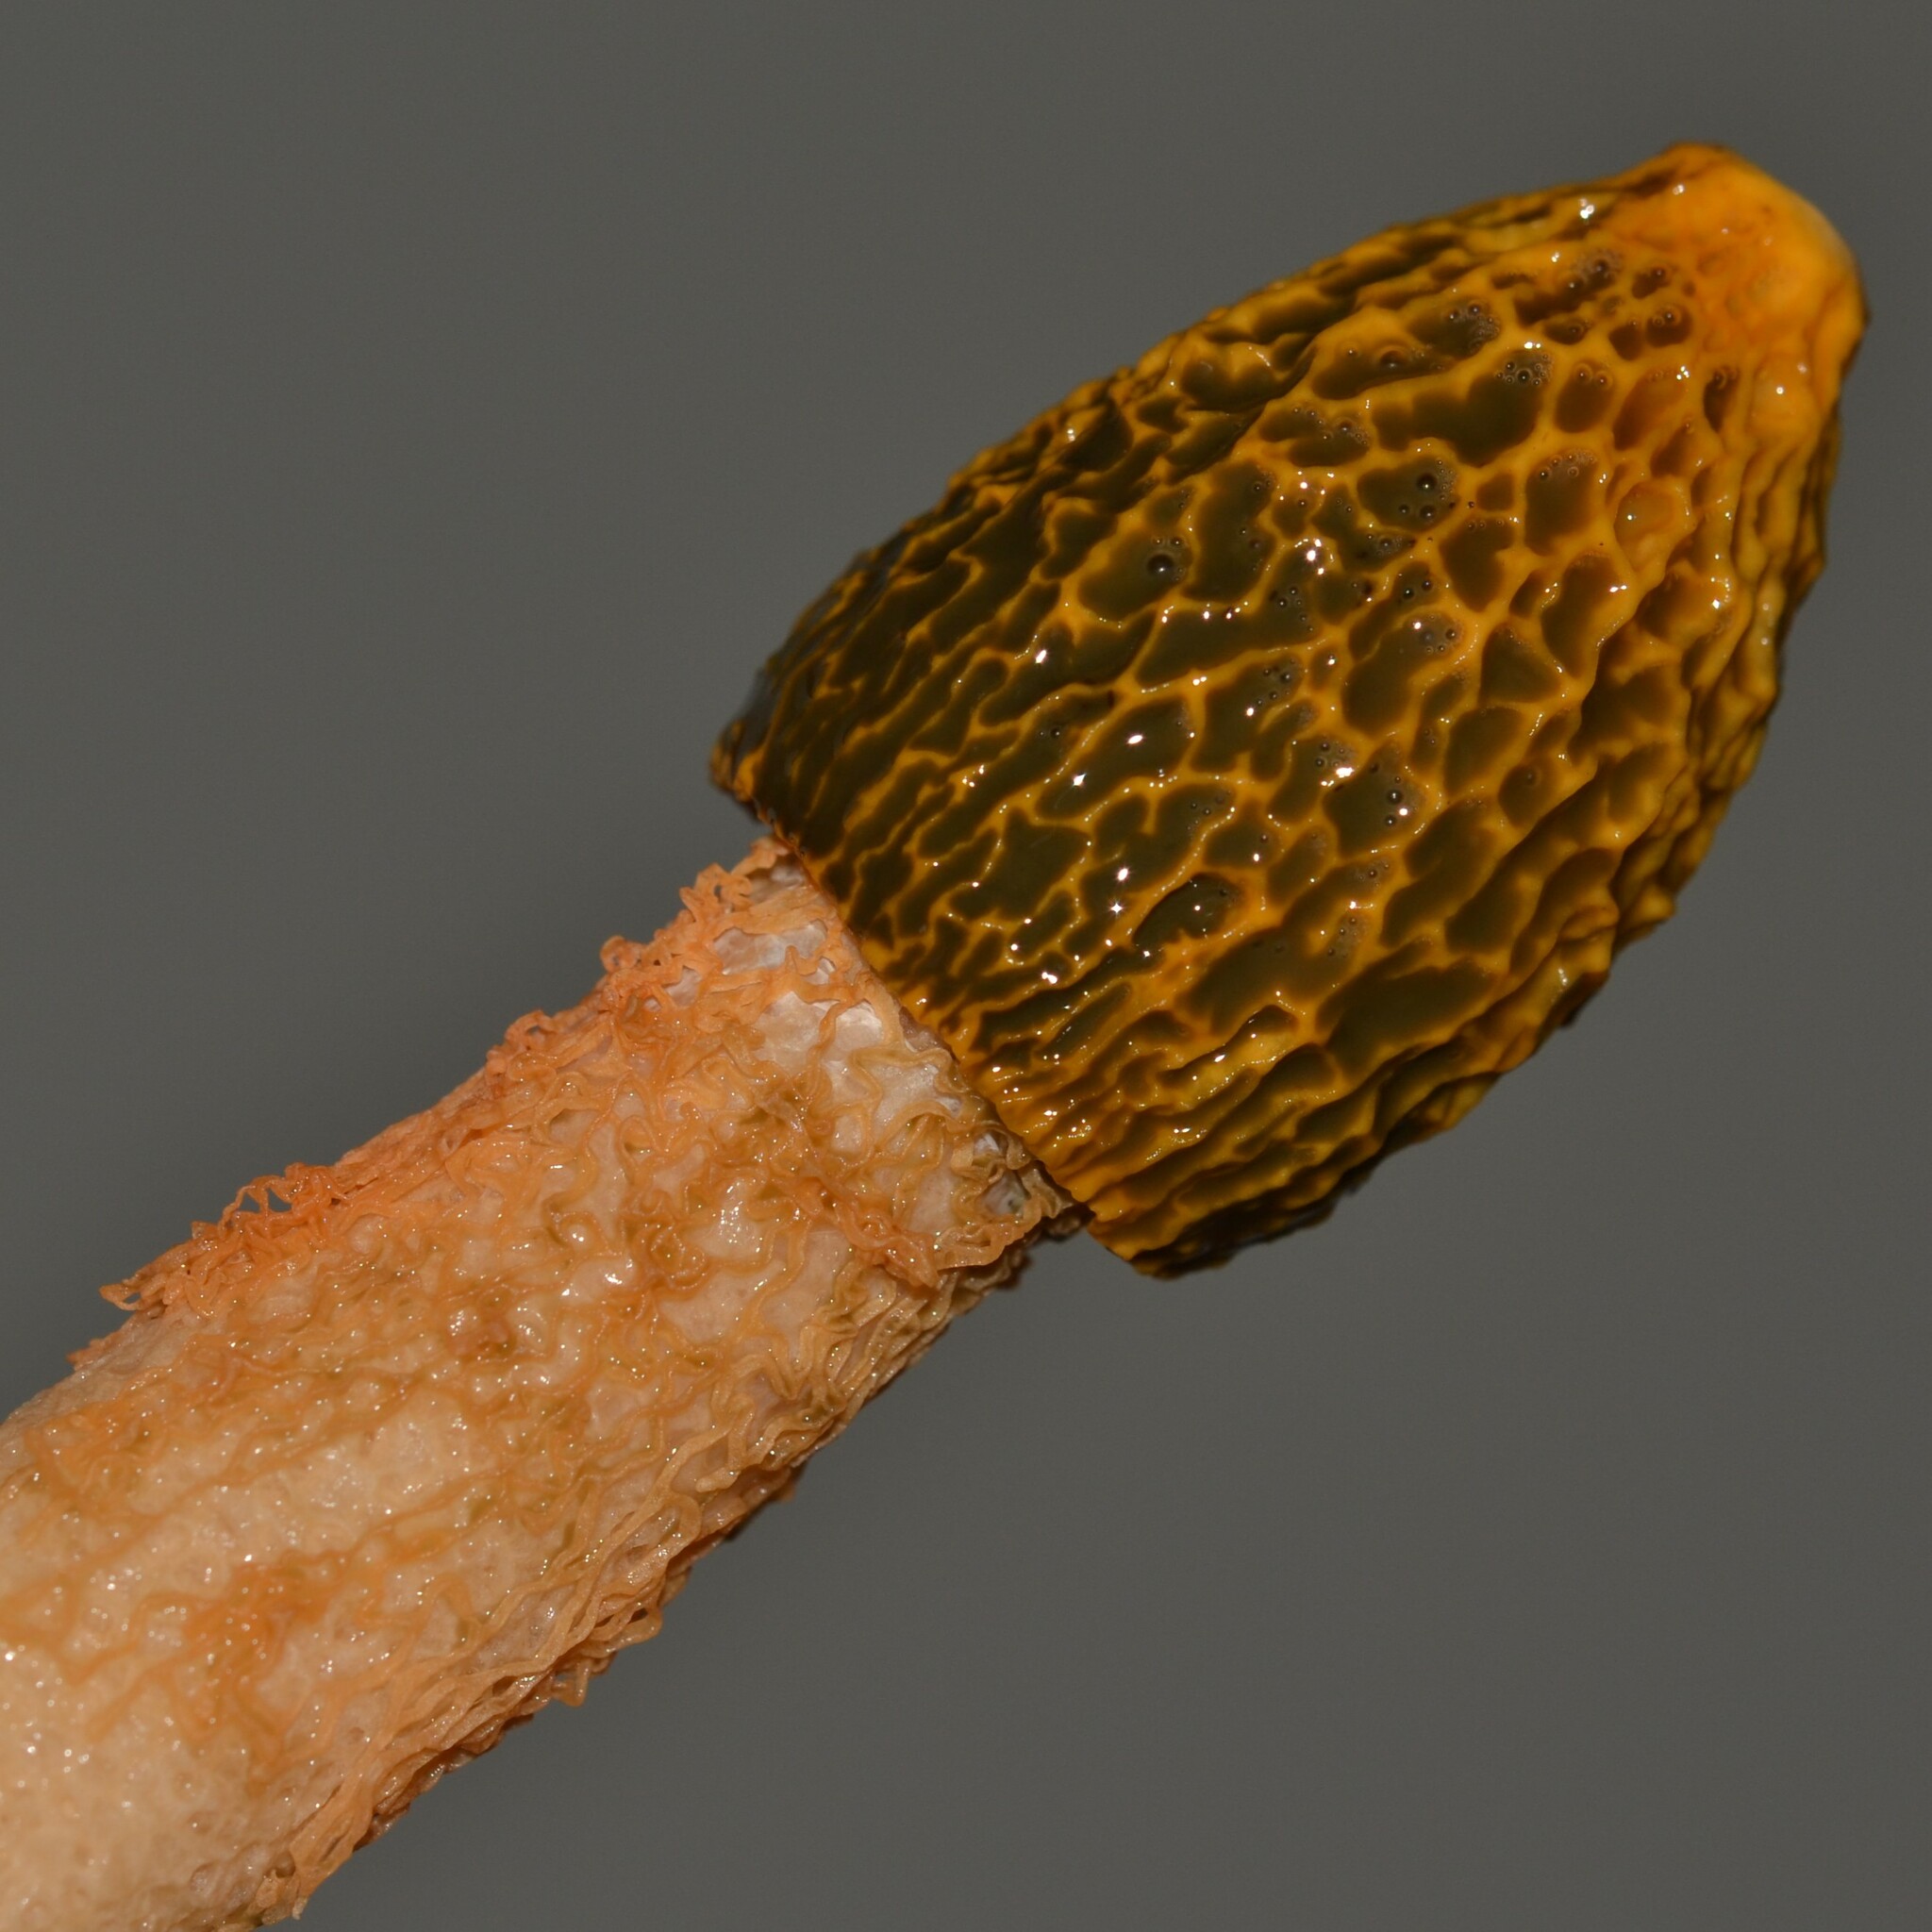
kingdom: Fungi
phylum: Basidiomycota
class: Agaricomycetes
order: Phallales
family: Phallaceae
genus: Phallus
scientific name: Phallus multicolor
